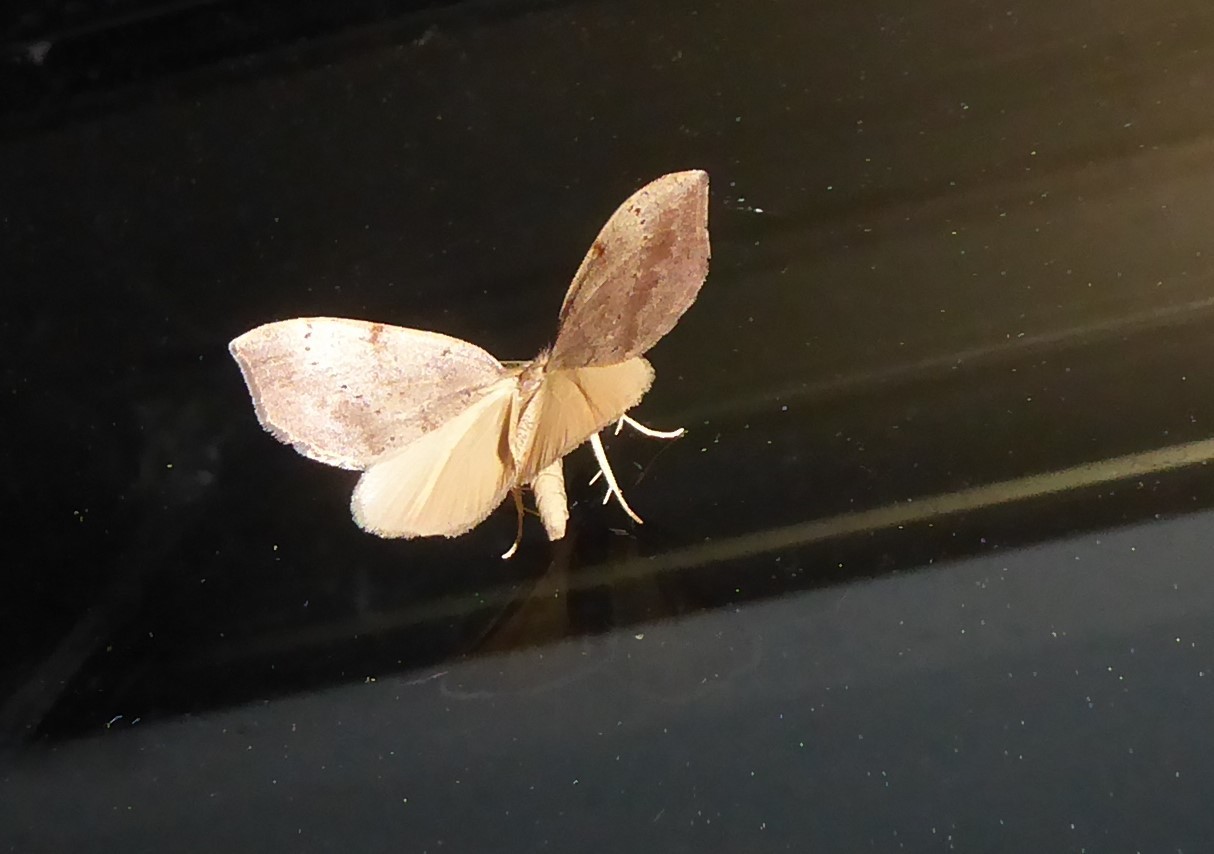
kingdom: Animalia
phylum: Arthropoda
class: Insecta
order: Lepidoptera
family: Geometridae
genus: Sestra
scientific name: Sestra humeraria
